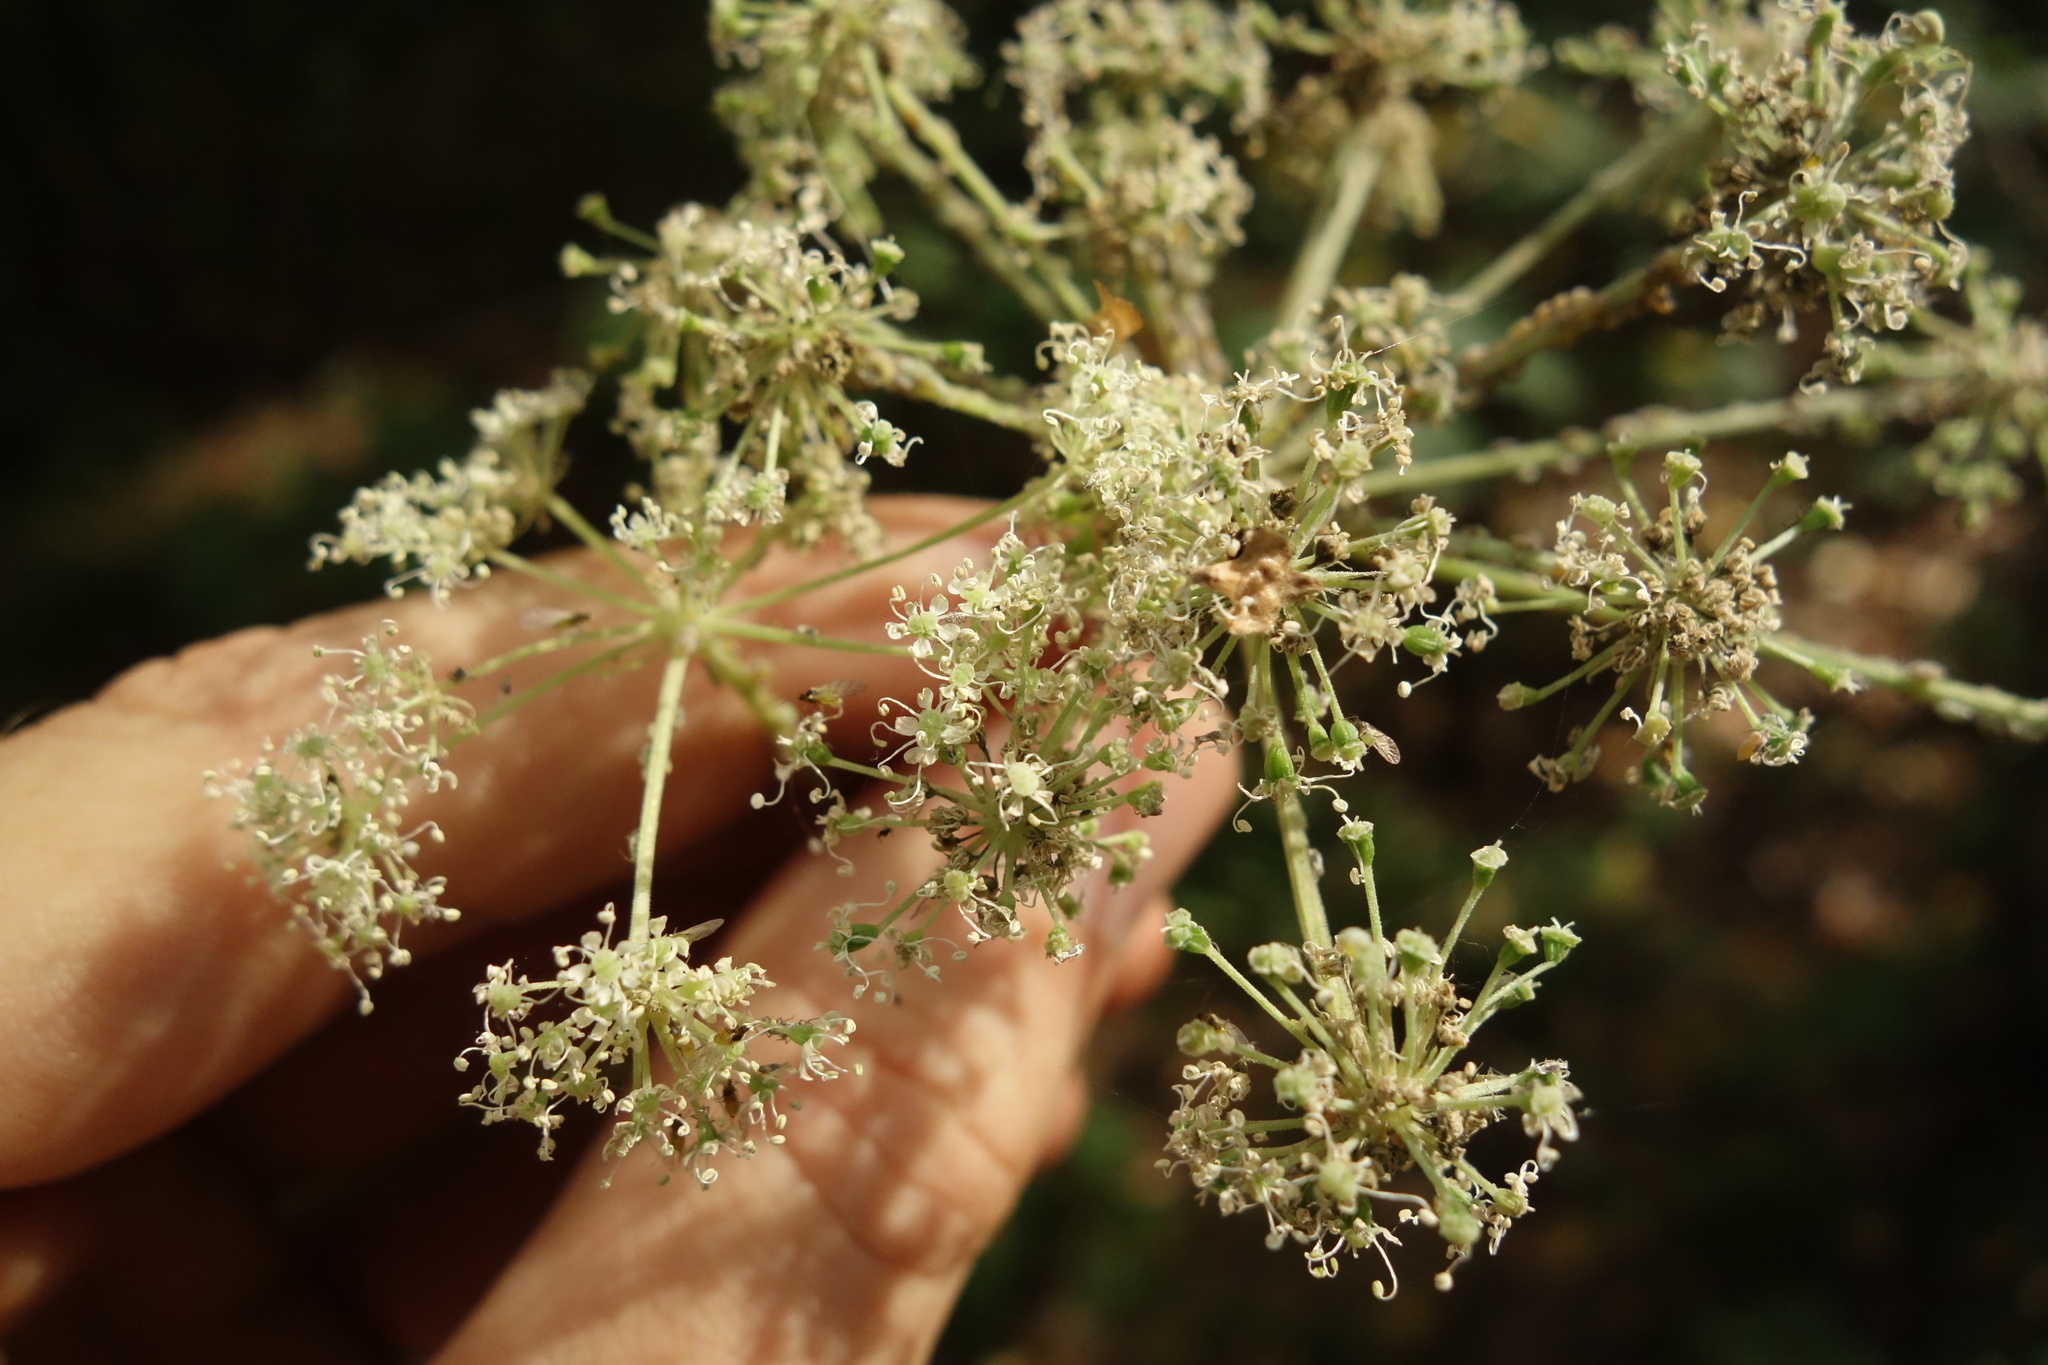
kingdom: Plantae
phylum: Tracheophyta
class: Magnoliopsida
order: Apiales
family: Apiaceae
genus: Aegopodium
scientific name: Aegopodium podagraria
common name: Ground-elder
